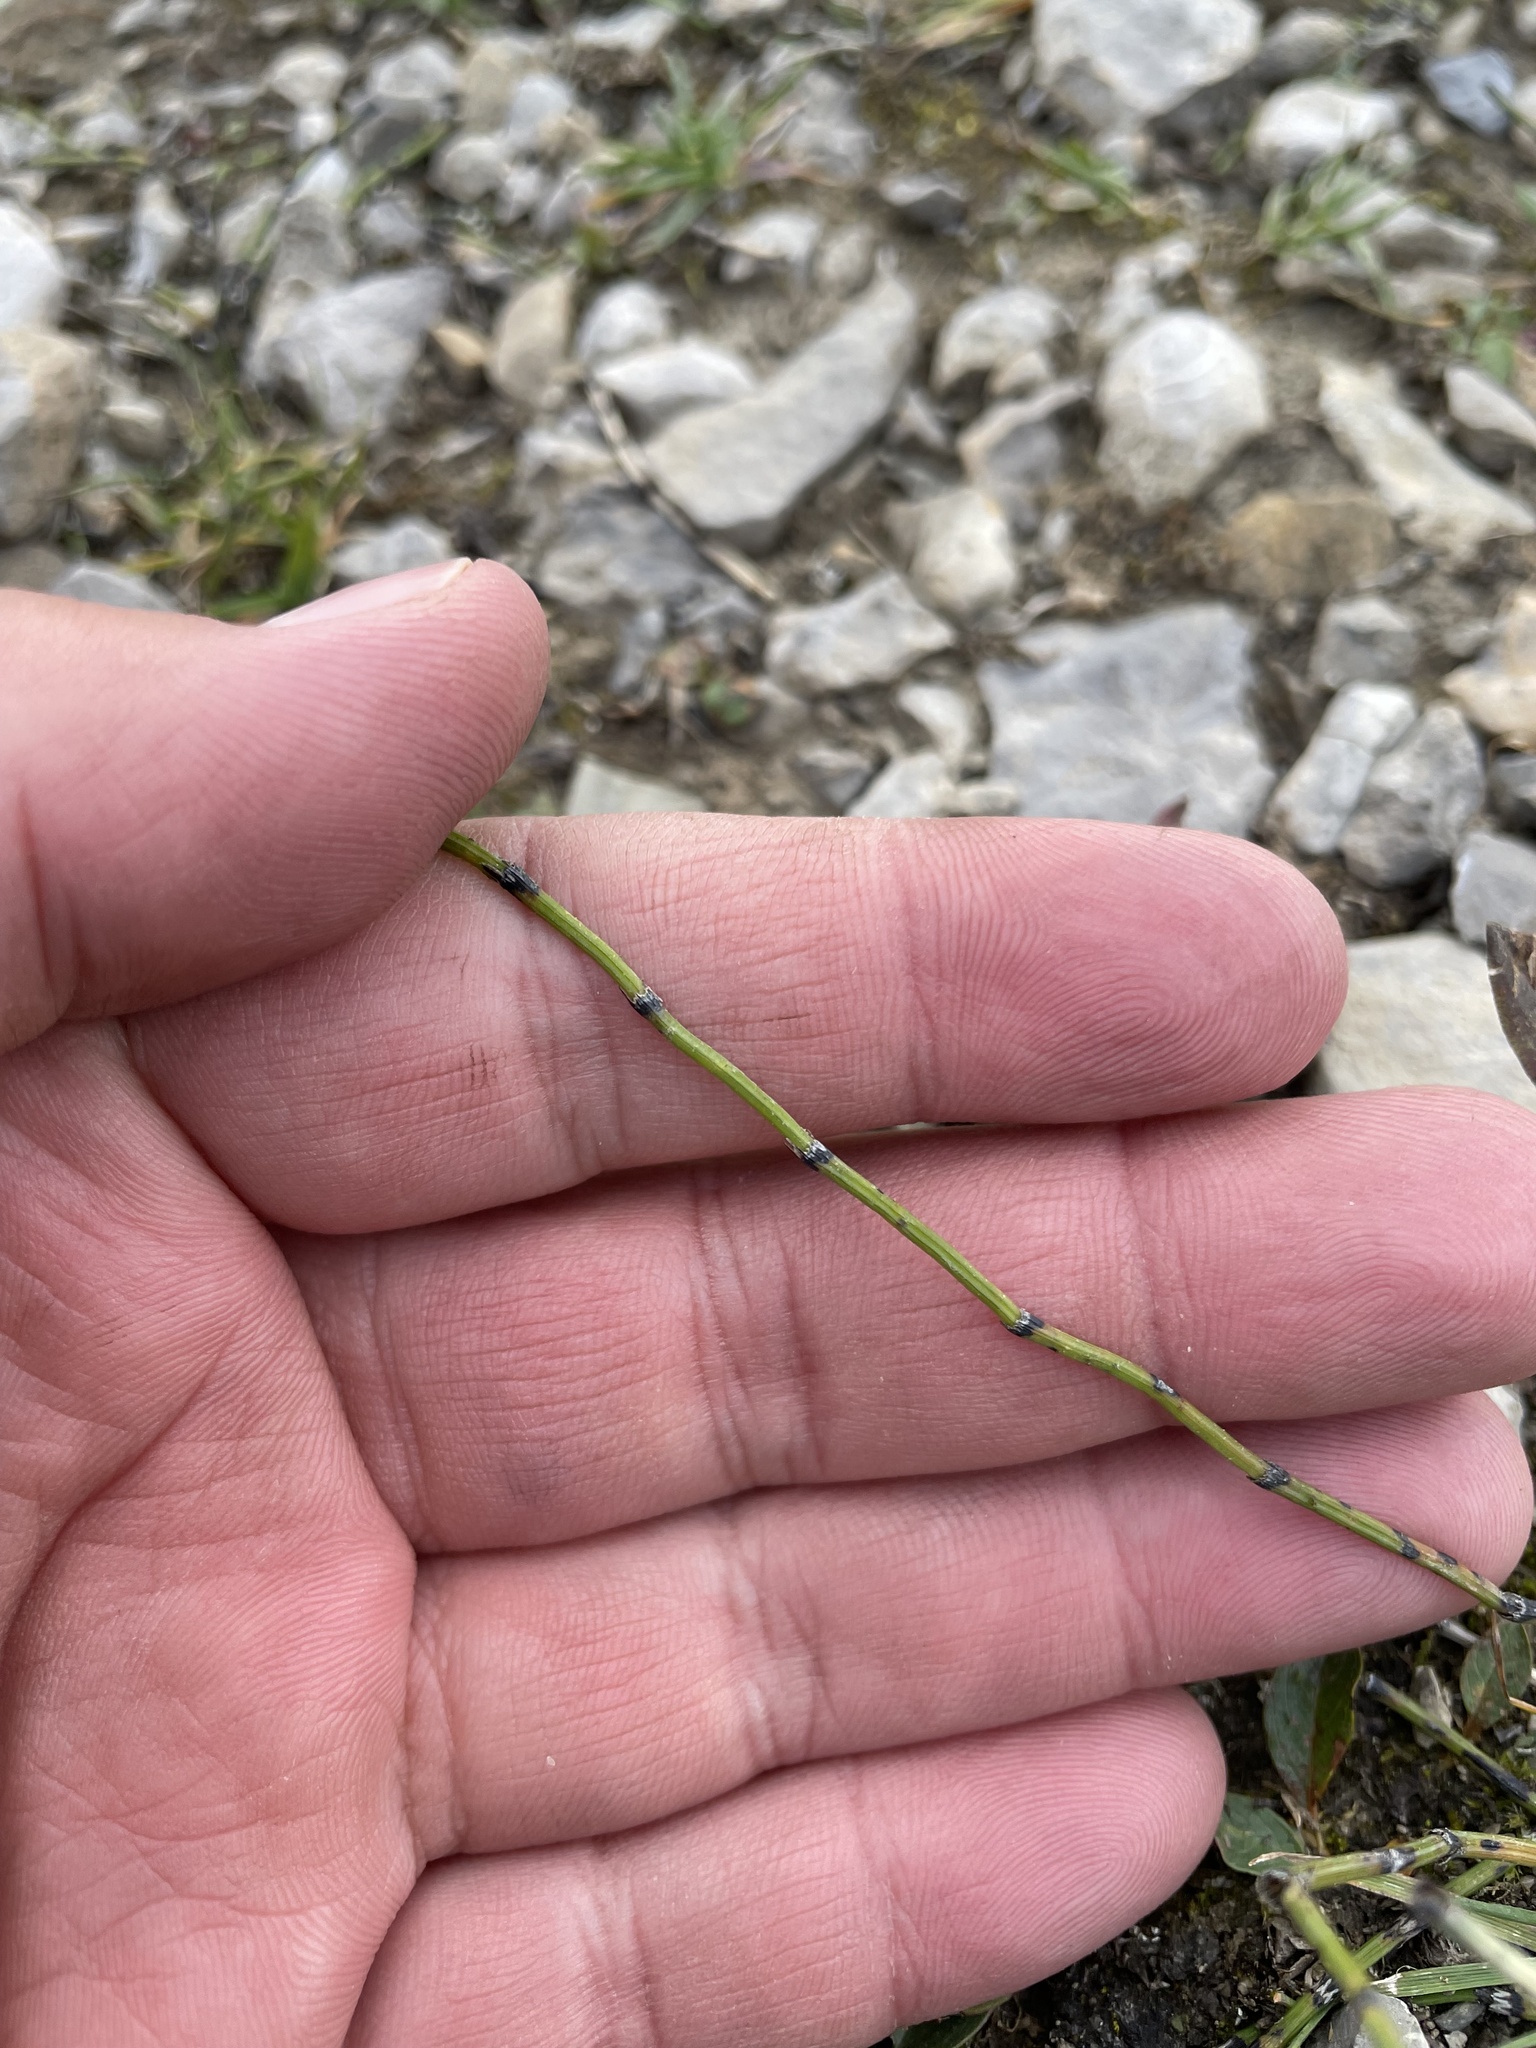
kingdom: Plantae
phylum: Tracheophyta
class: Polypodiopsida
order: Equisetales
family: Equisetaceae
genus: Equisetum
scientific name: Equisetum variegatum
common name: Variegated horsetail
